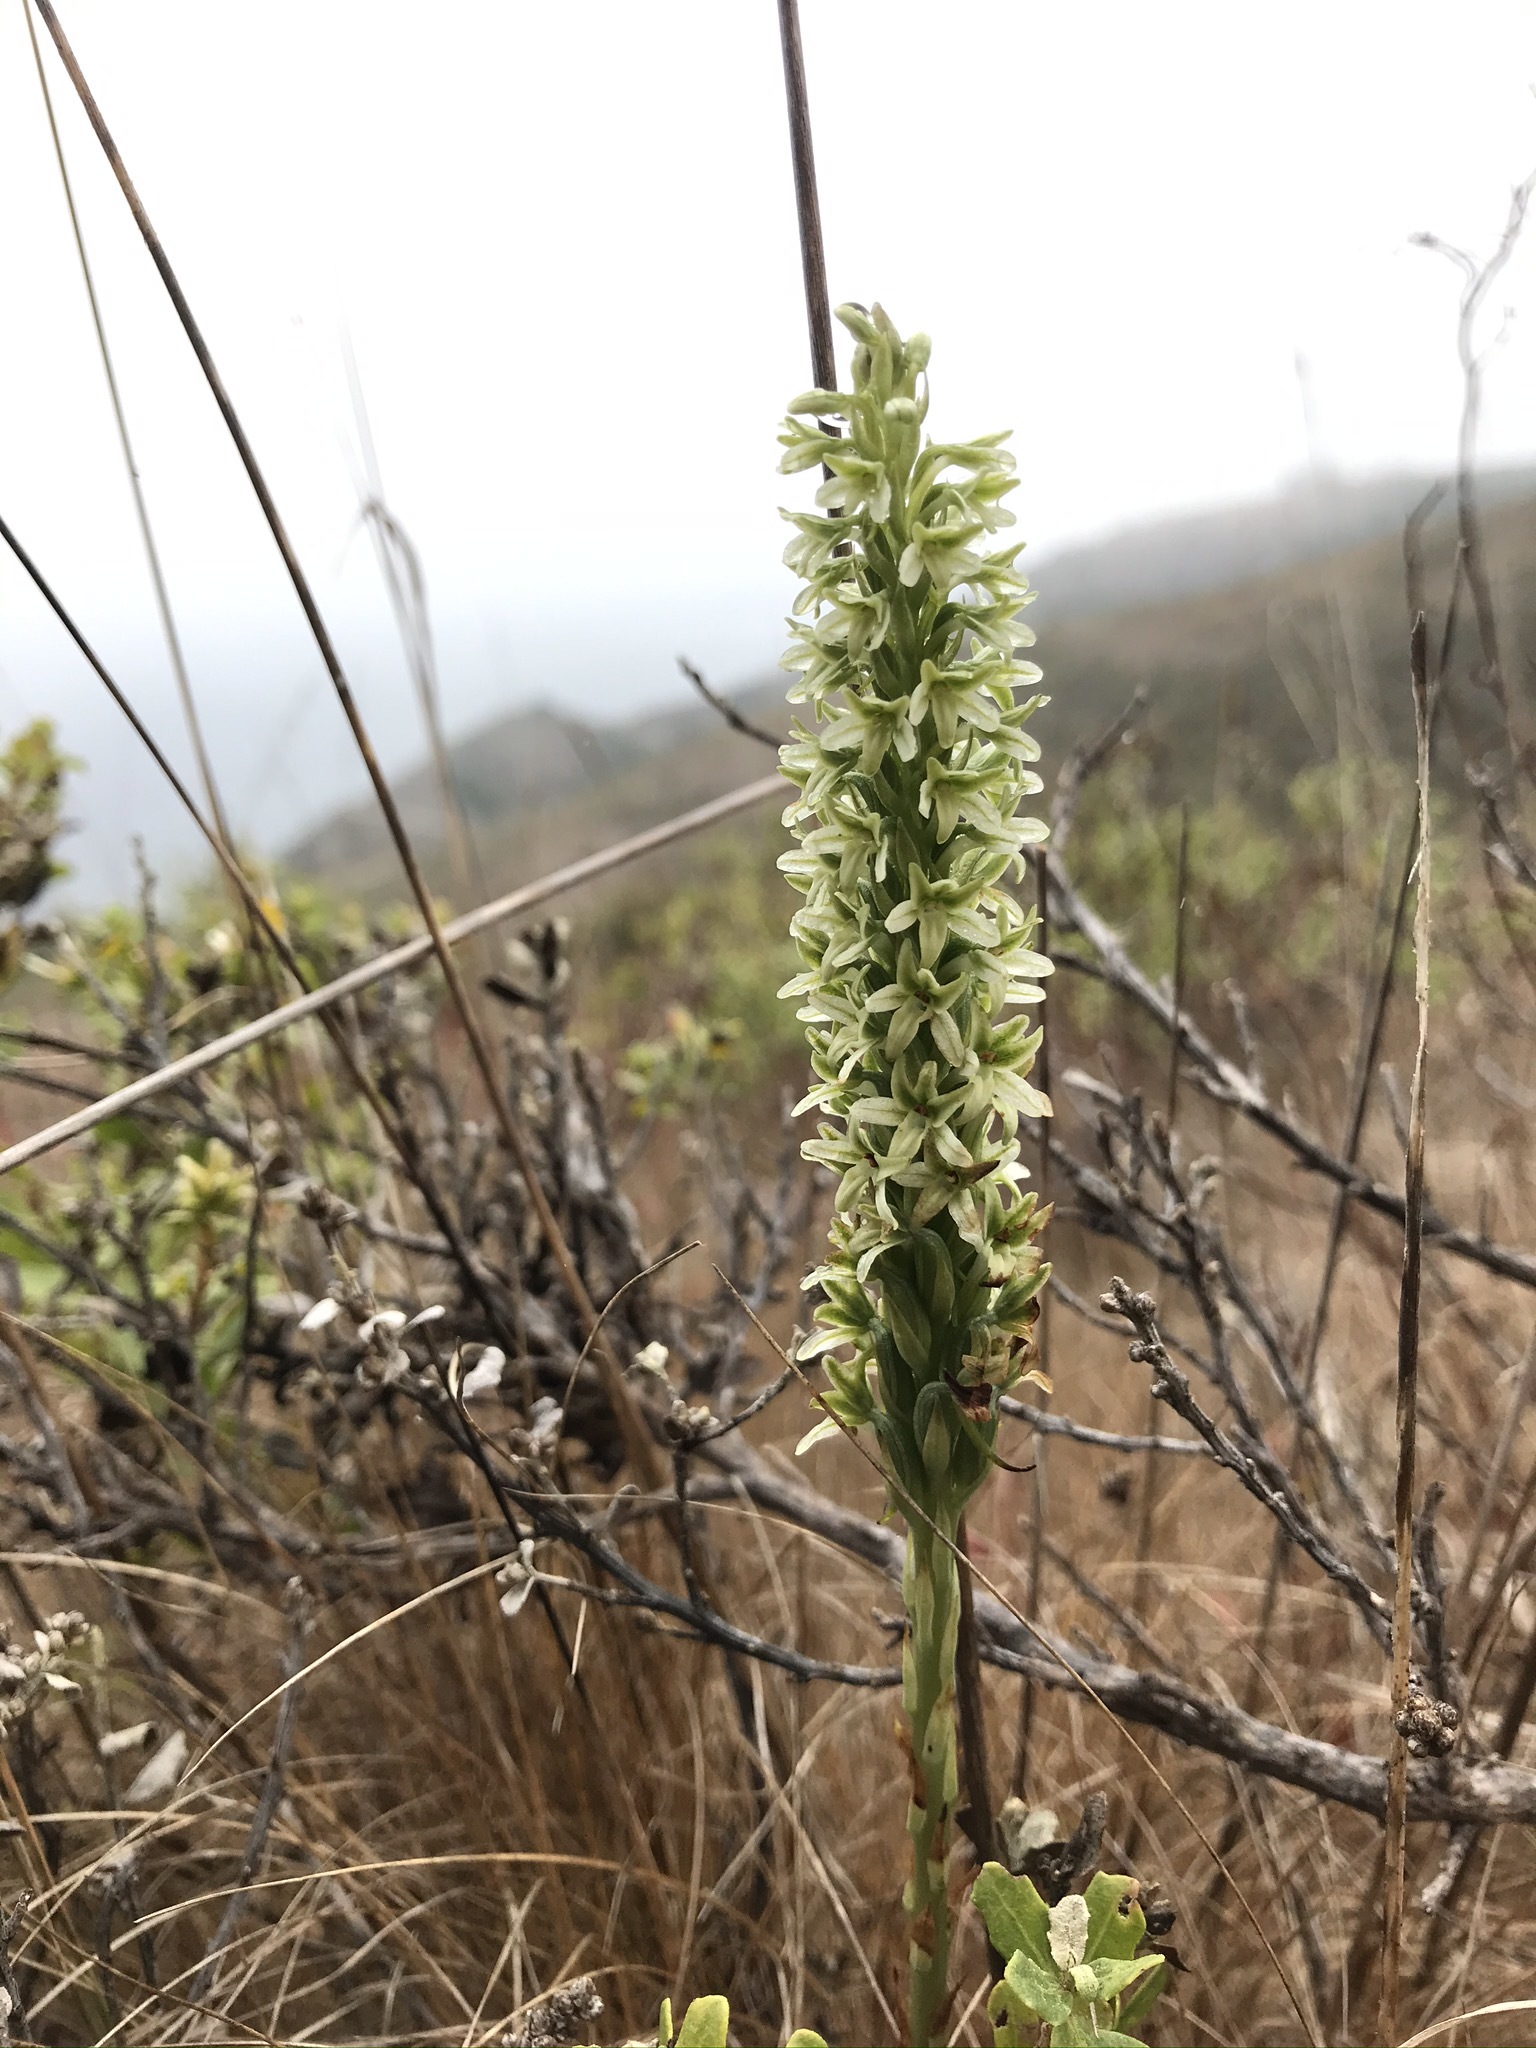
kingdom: Plantae
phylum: Tracheophyta
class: Liliopsida
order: Asparagales
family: Orchidaceae
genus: Platanthera
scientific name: Platanthera elegans
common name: Coast piperia
